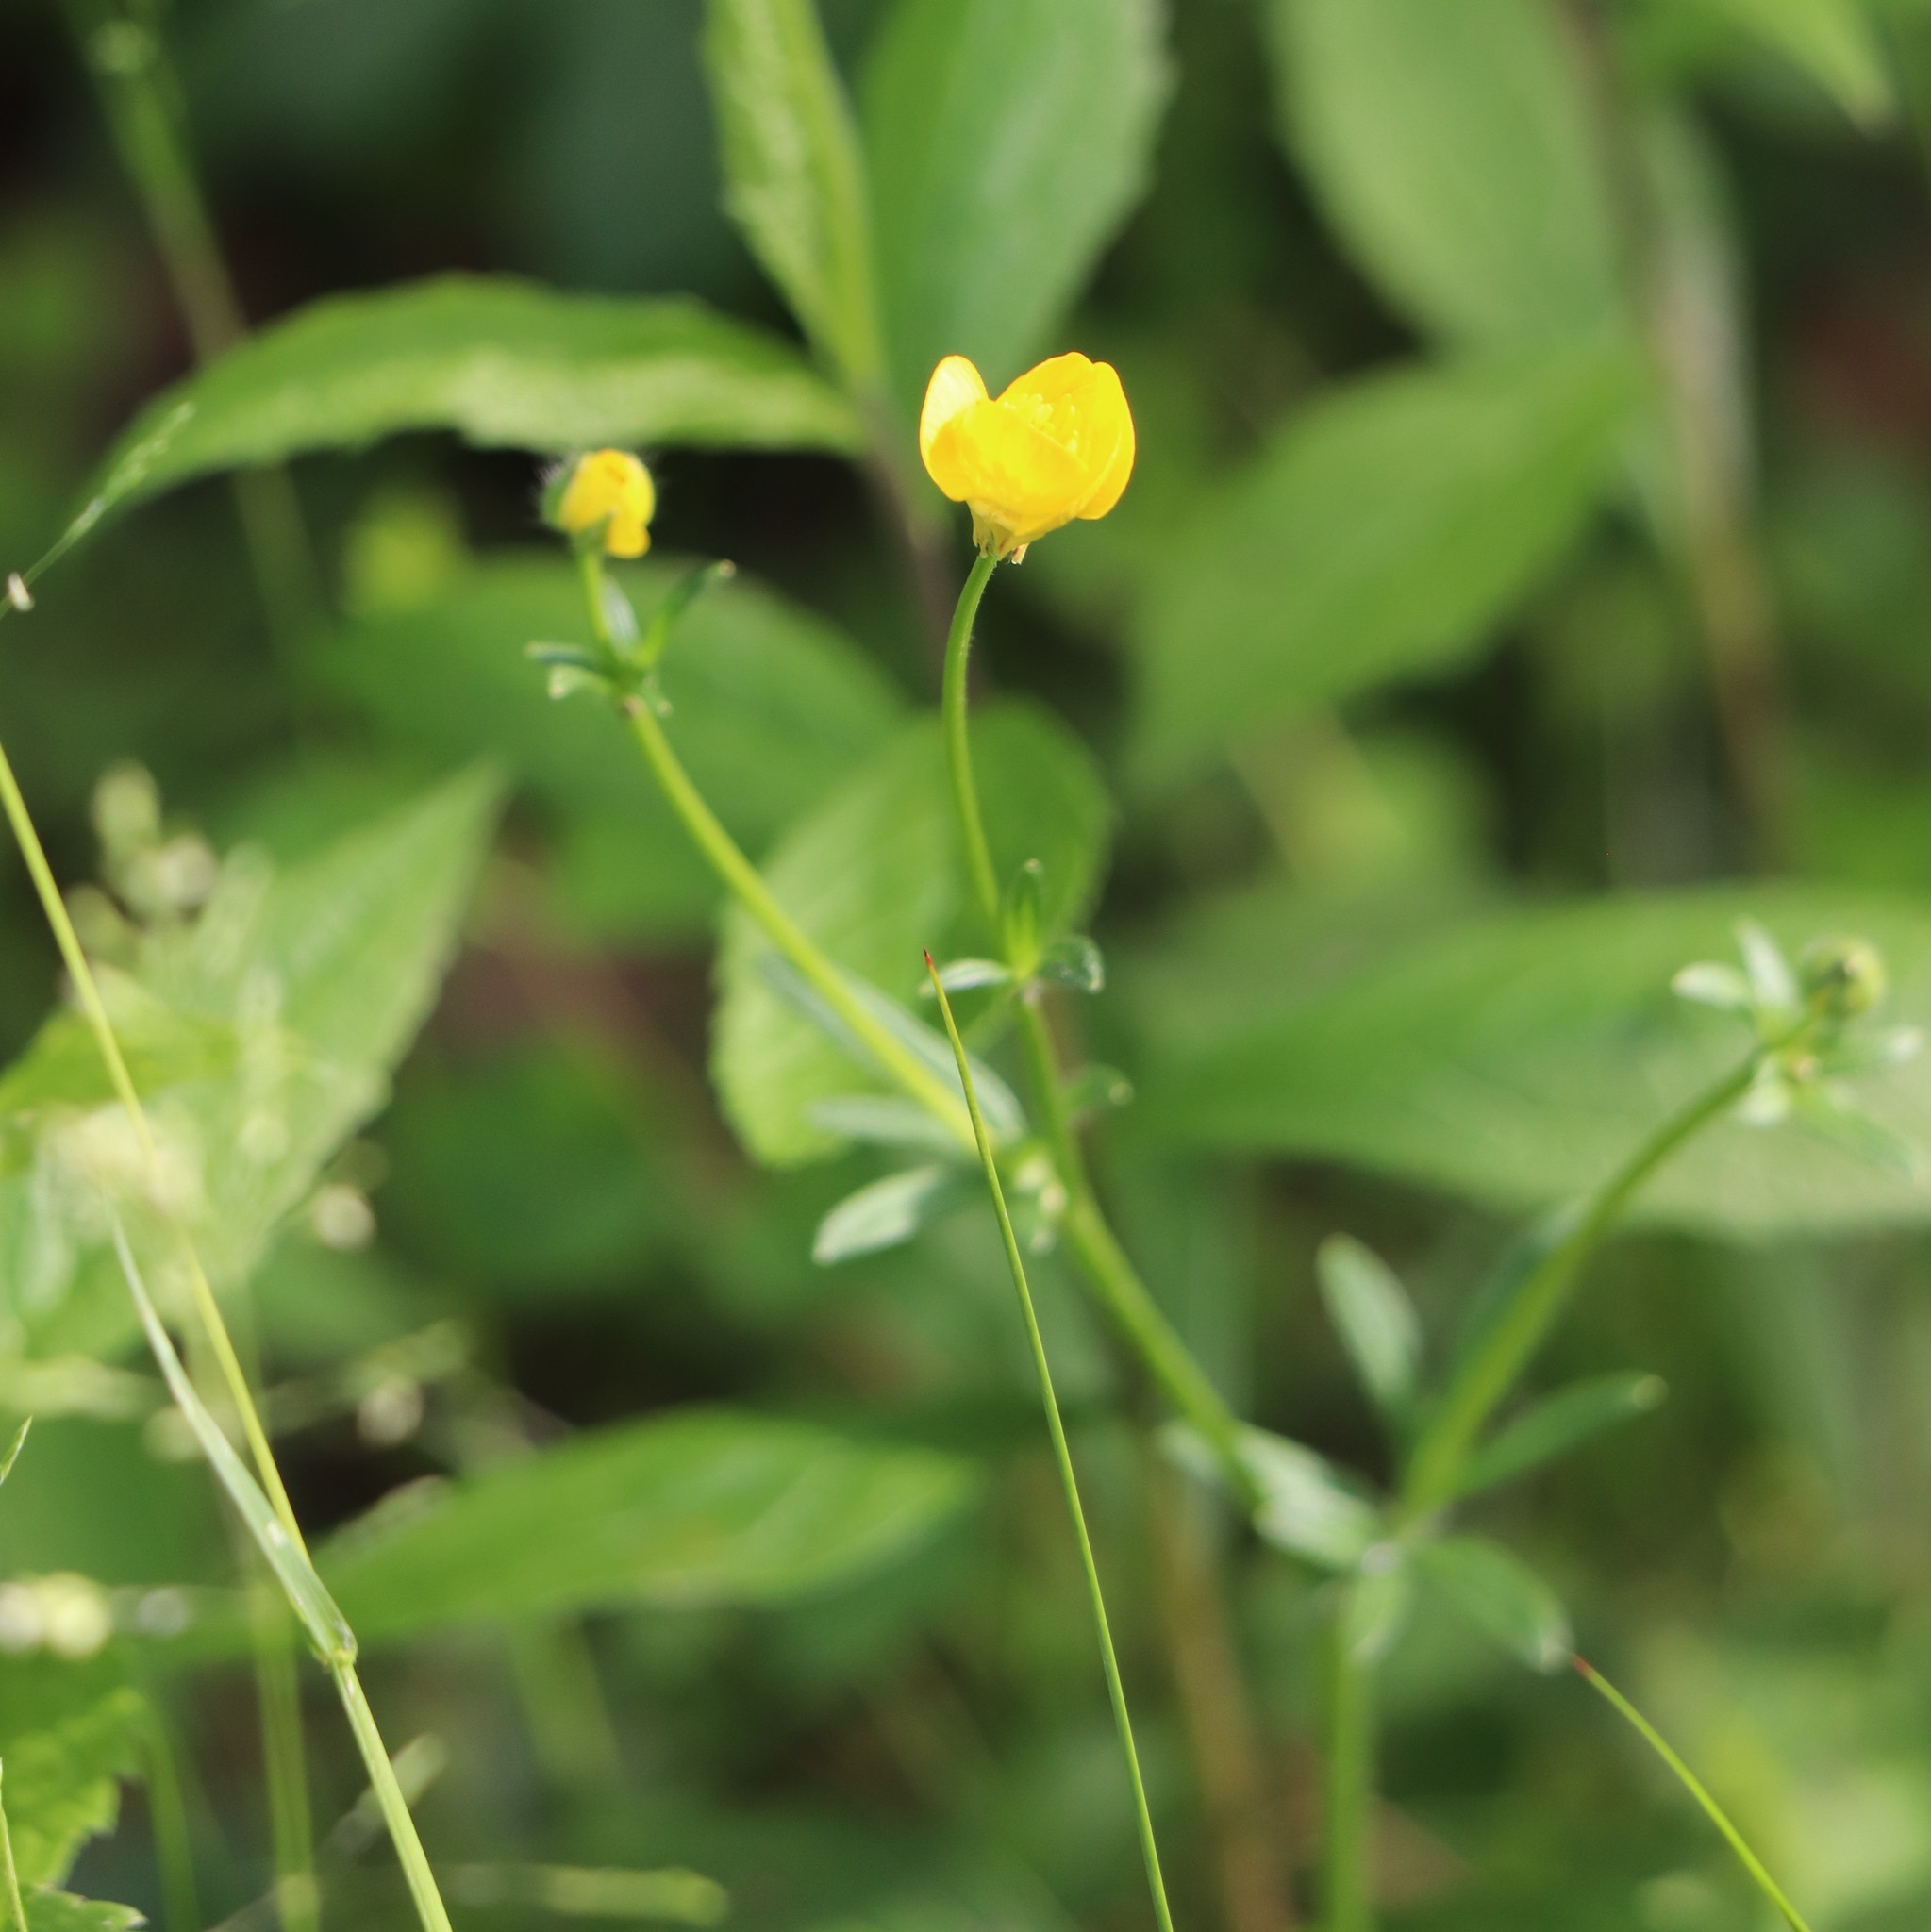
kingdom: Plantae
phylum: Tracheophyta
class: Magnoliopsida
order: Ranunculales
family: Ranunculaceae
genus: Ranunculus
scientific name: Ranunculus bulbosus
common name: Bulbous buttercup
